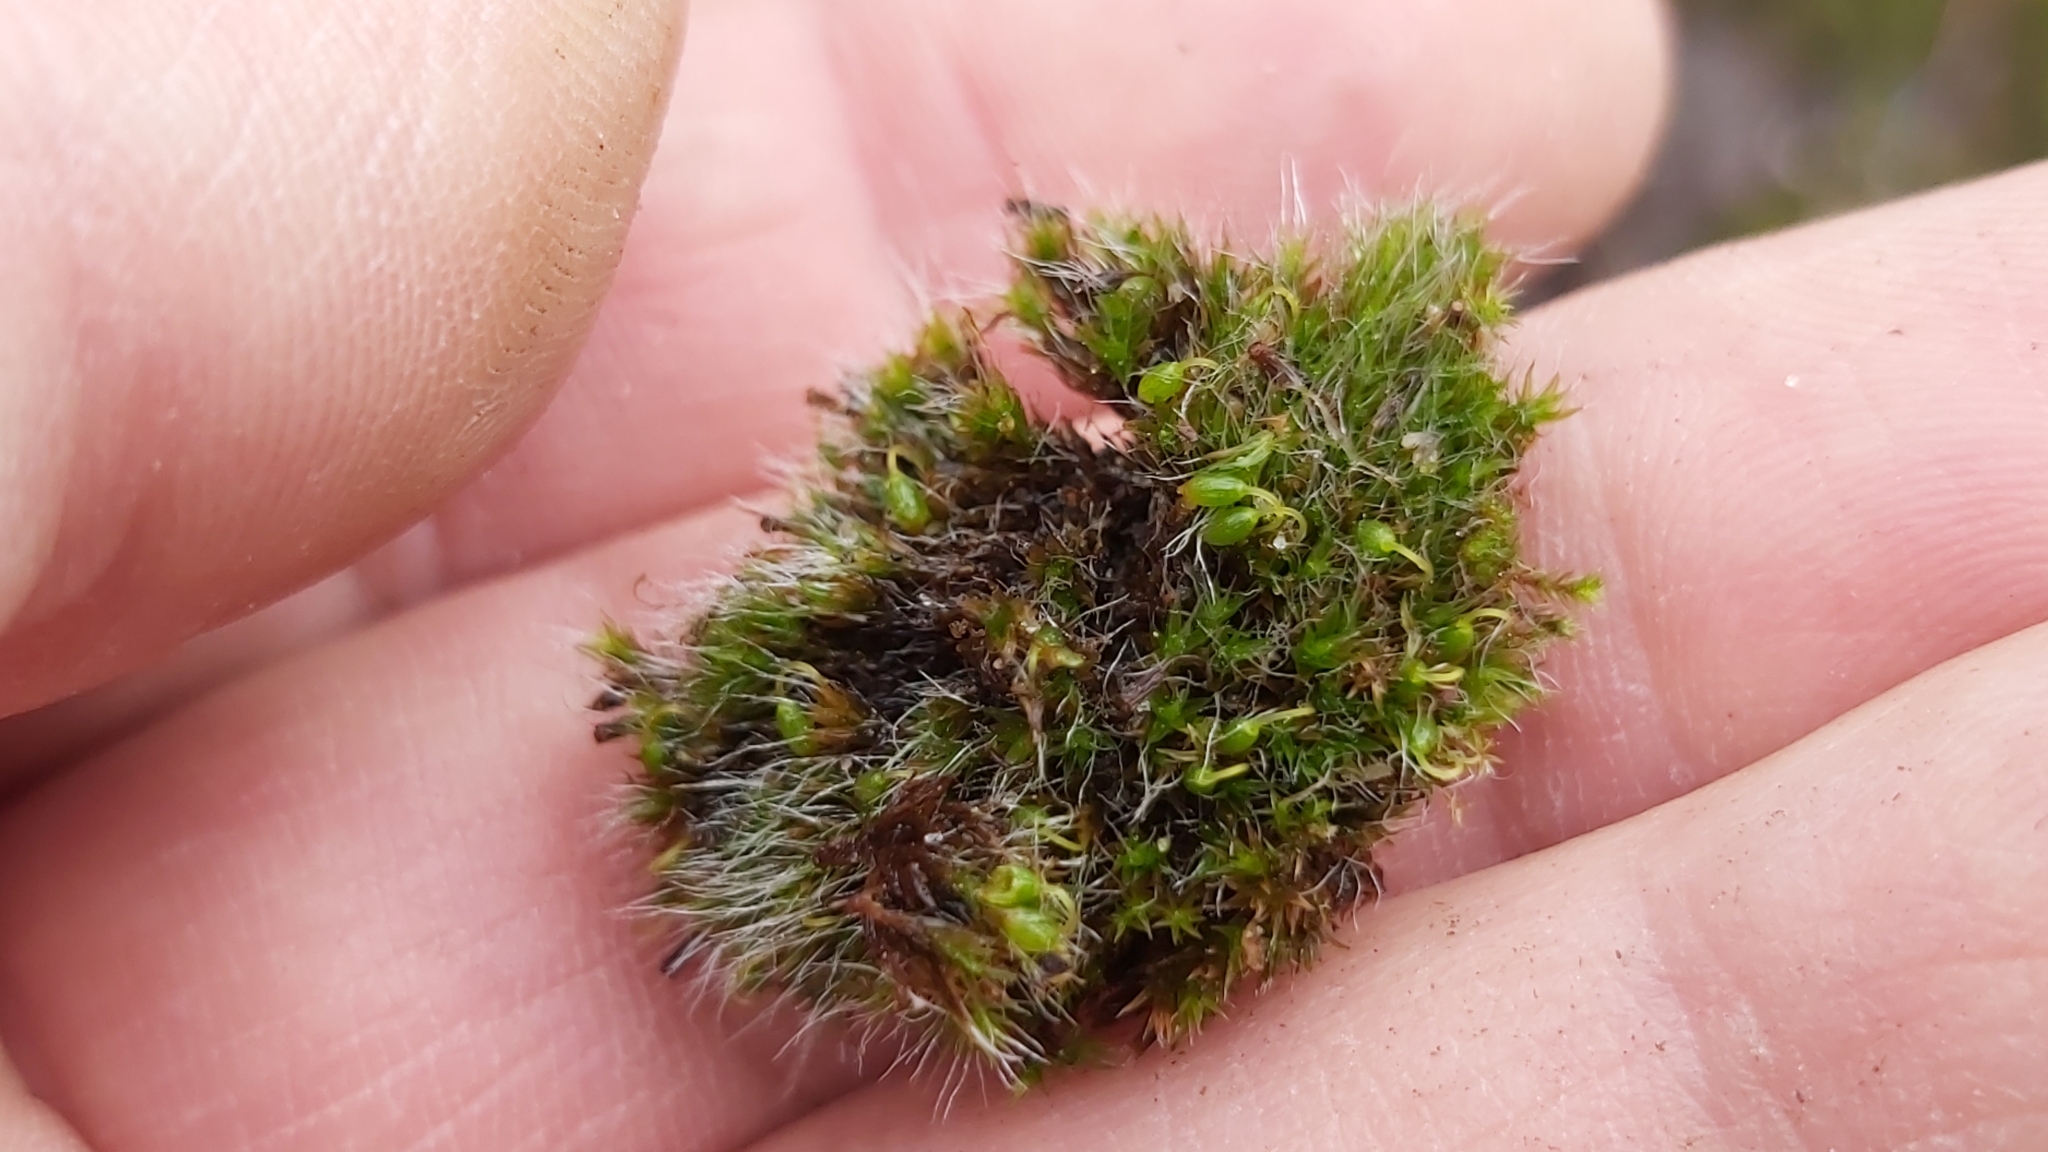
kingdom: Plantae
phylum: Bryophyta
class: Bryopsida
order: Grimmiales
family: Grimmiaceae
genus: Grimmia
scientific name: Grimmia pulvinata
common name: Grey-cushioned grimmia
